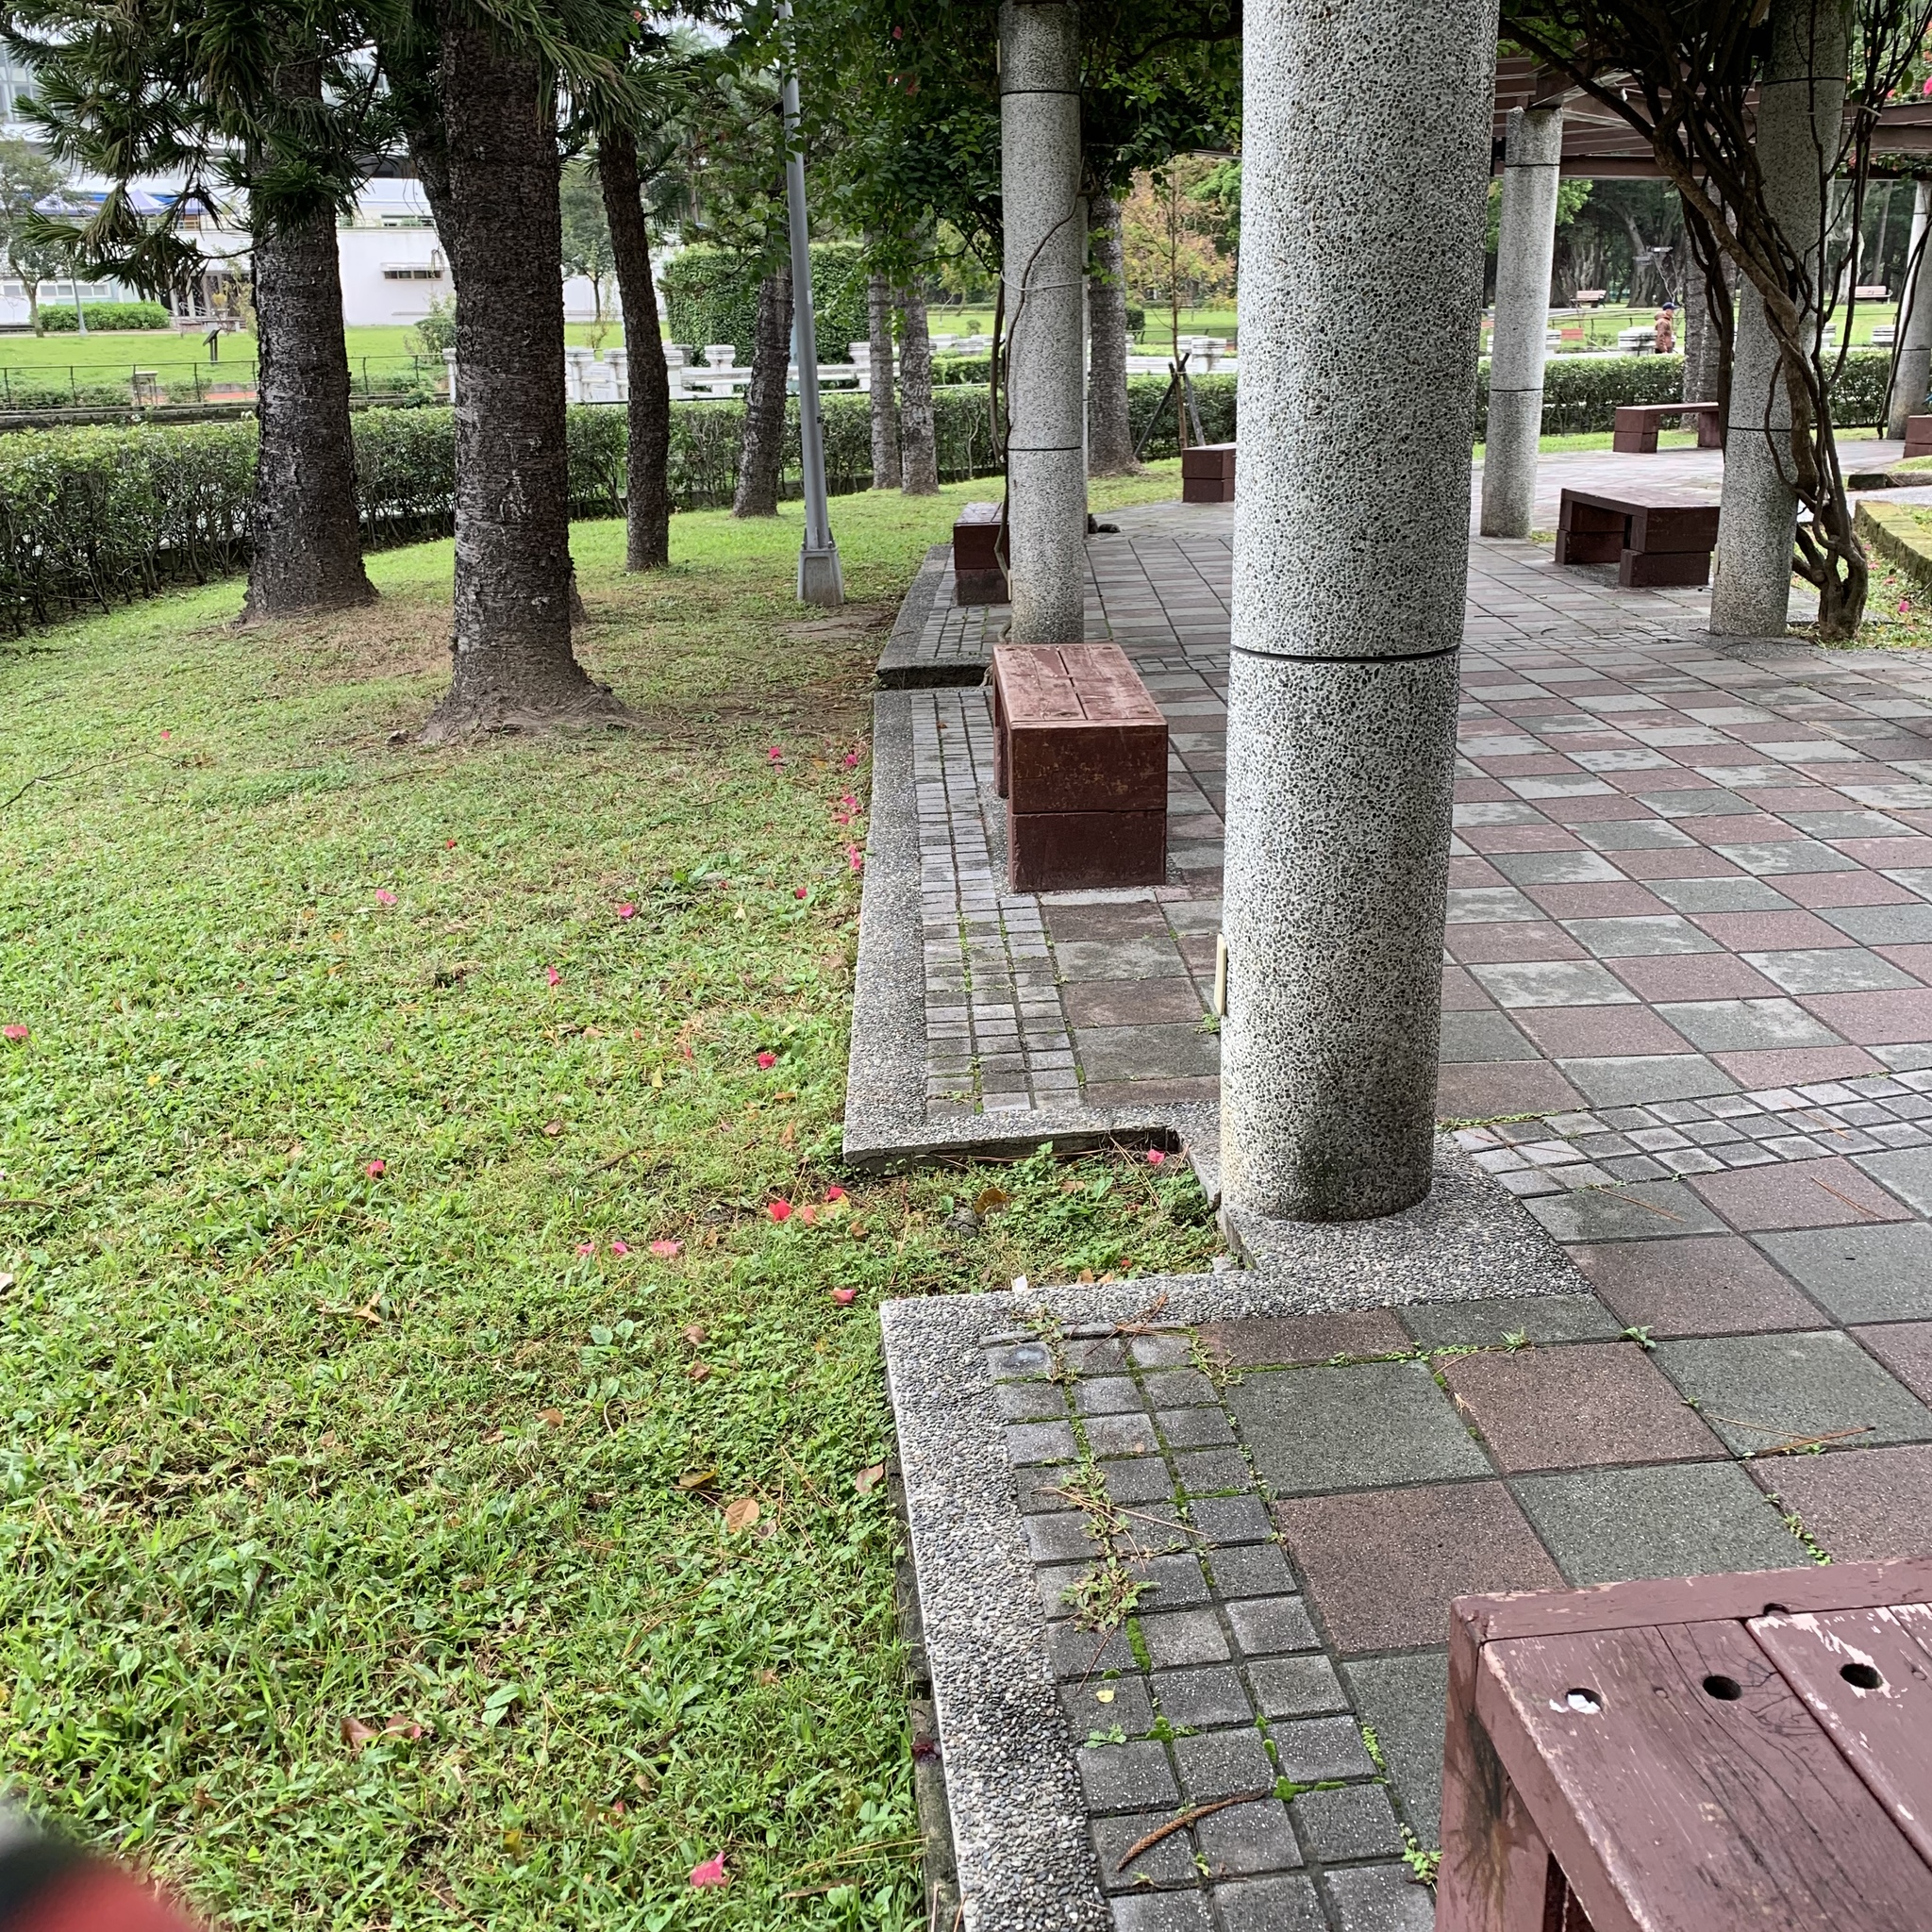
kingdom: Animalia
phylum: Chordata
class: Mammalia
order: Rodentia
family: Sciuridae
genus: Callosciurus
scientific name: Callosciurus erythraeus
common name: Pallas's squirrel
